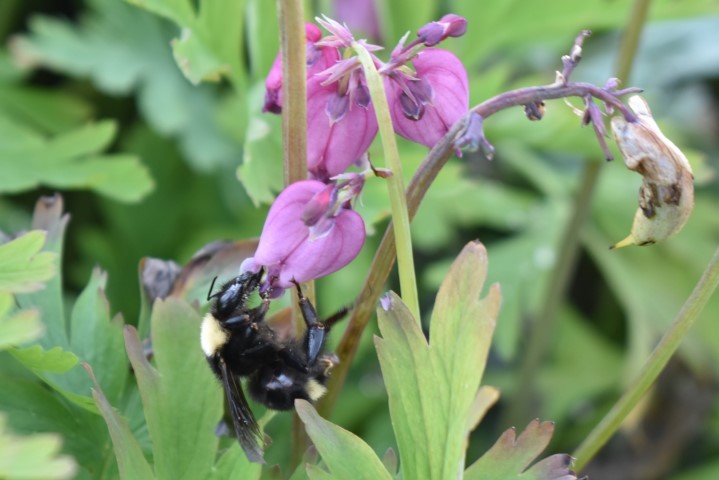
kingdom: Animalia
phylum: Arthropoda
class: Insecta
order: Hymenoptera
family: Apidae
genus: Bombus
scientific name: Bombus californicus
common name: California bumble bee
